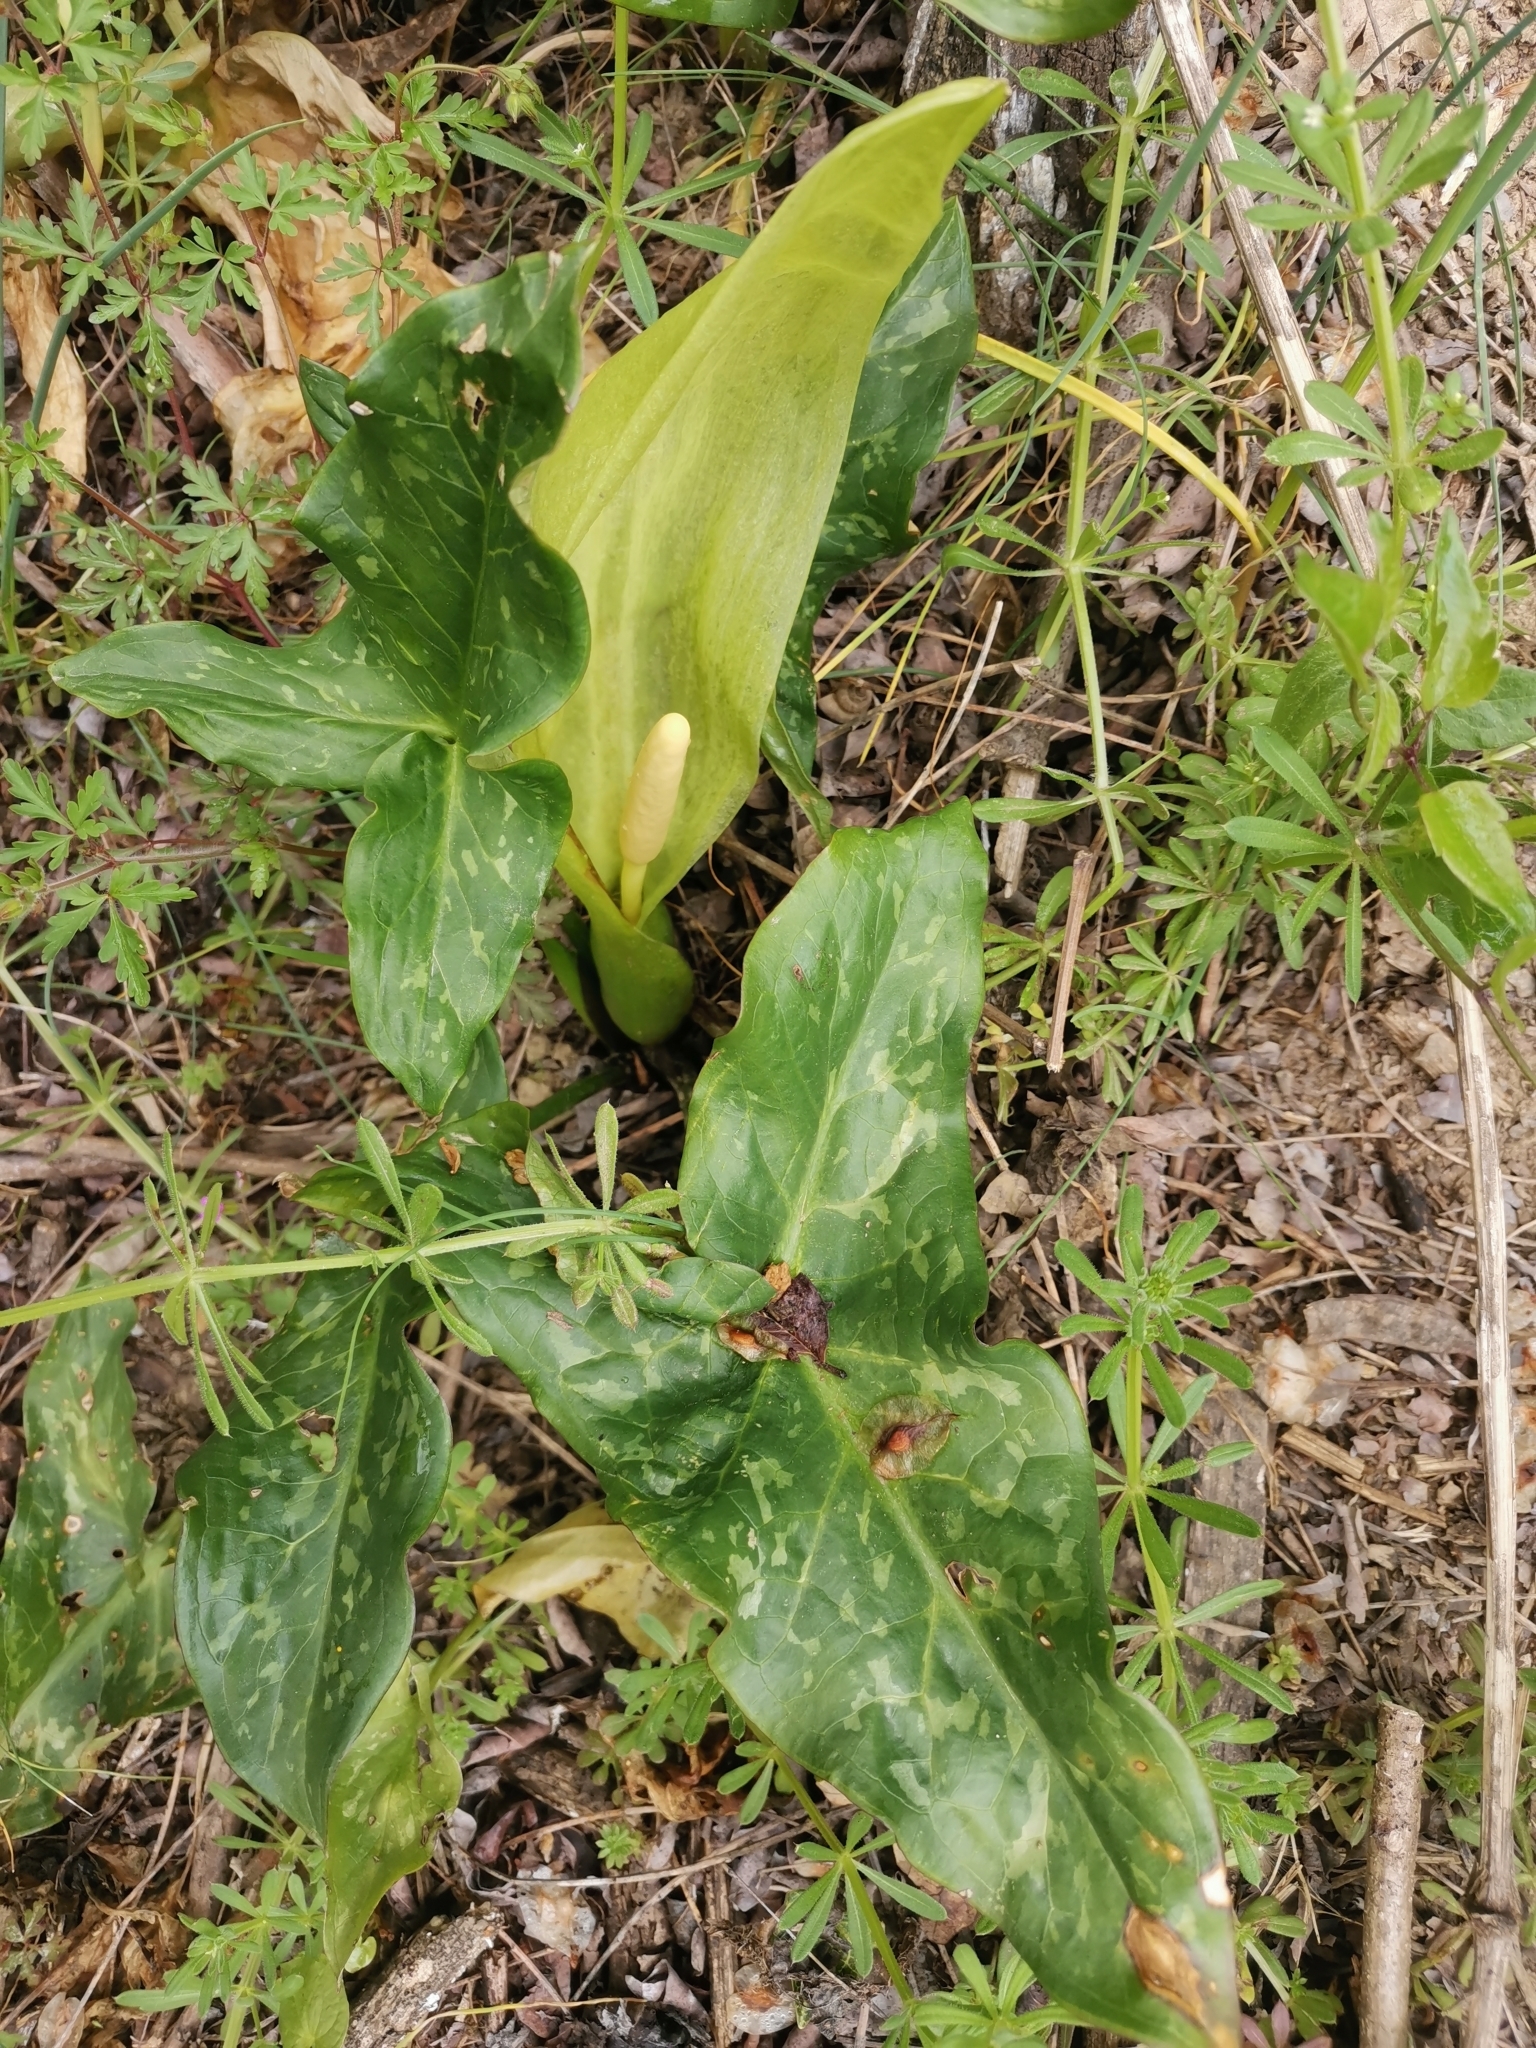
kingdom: Plantae
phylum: Tracheophyta
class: Liliopsida
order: Alismatales
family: Araceae
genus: Arum
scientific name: Arum italicum
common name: Italian lords-and-ladies
